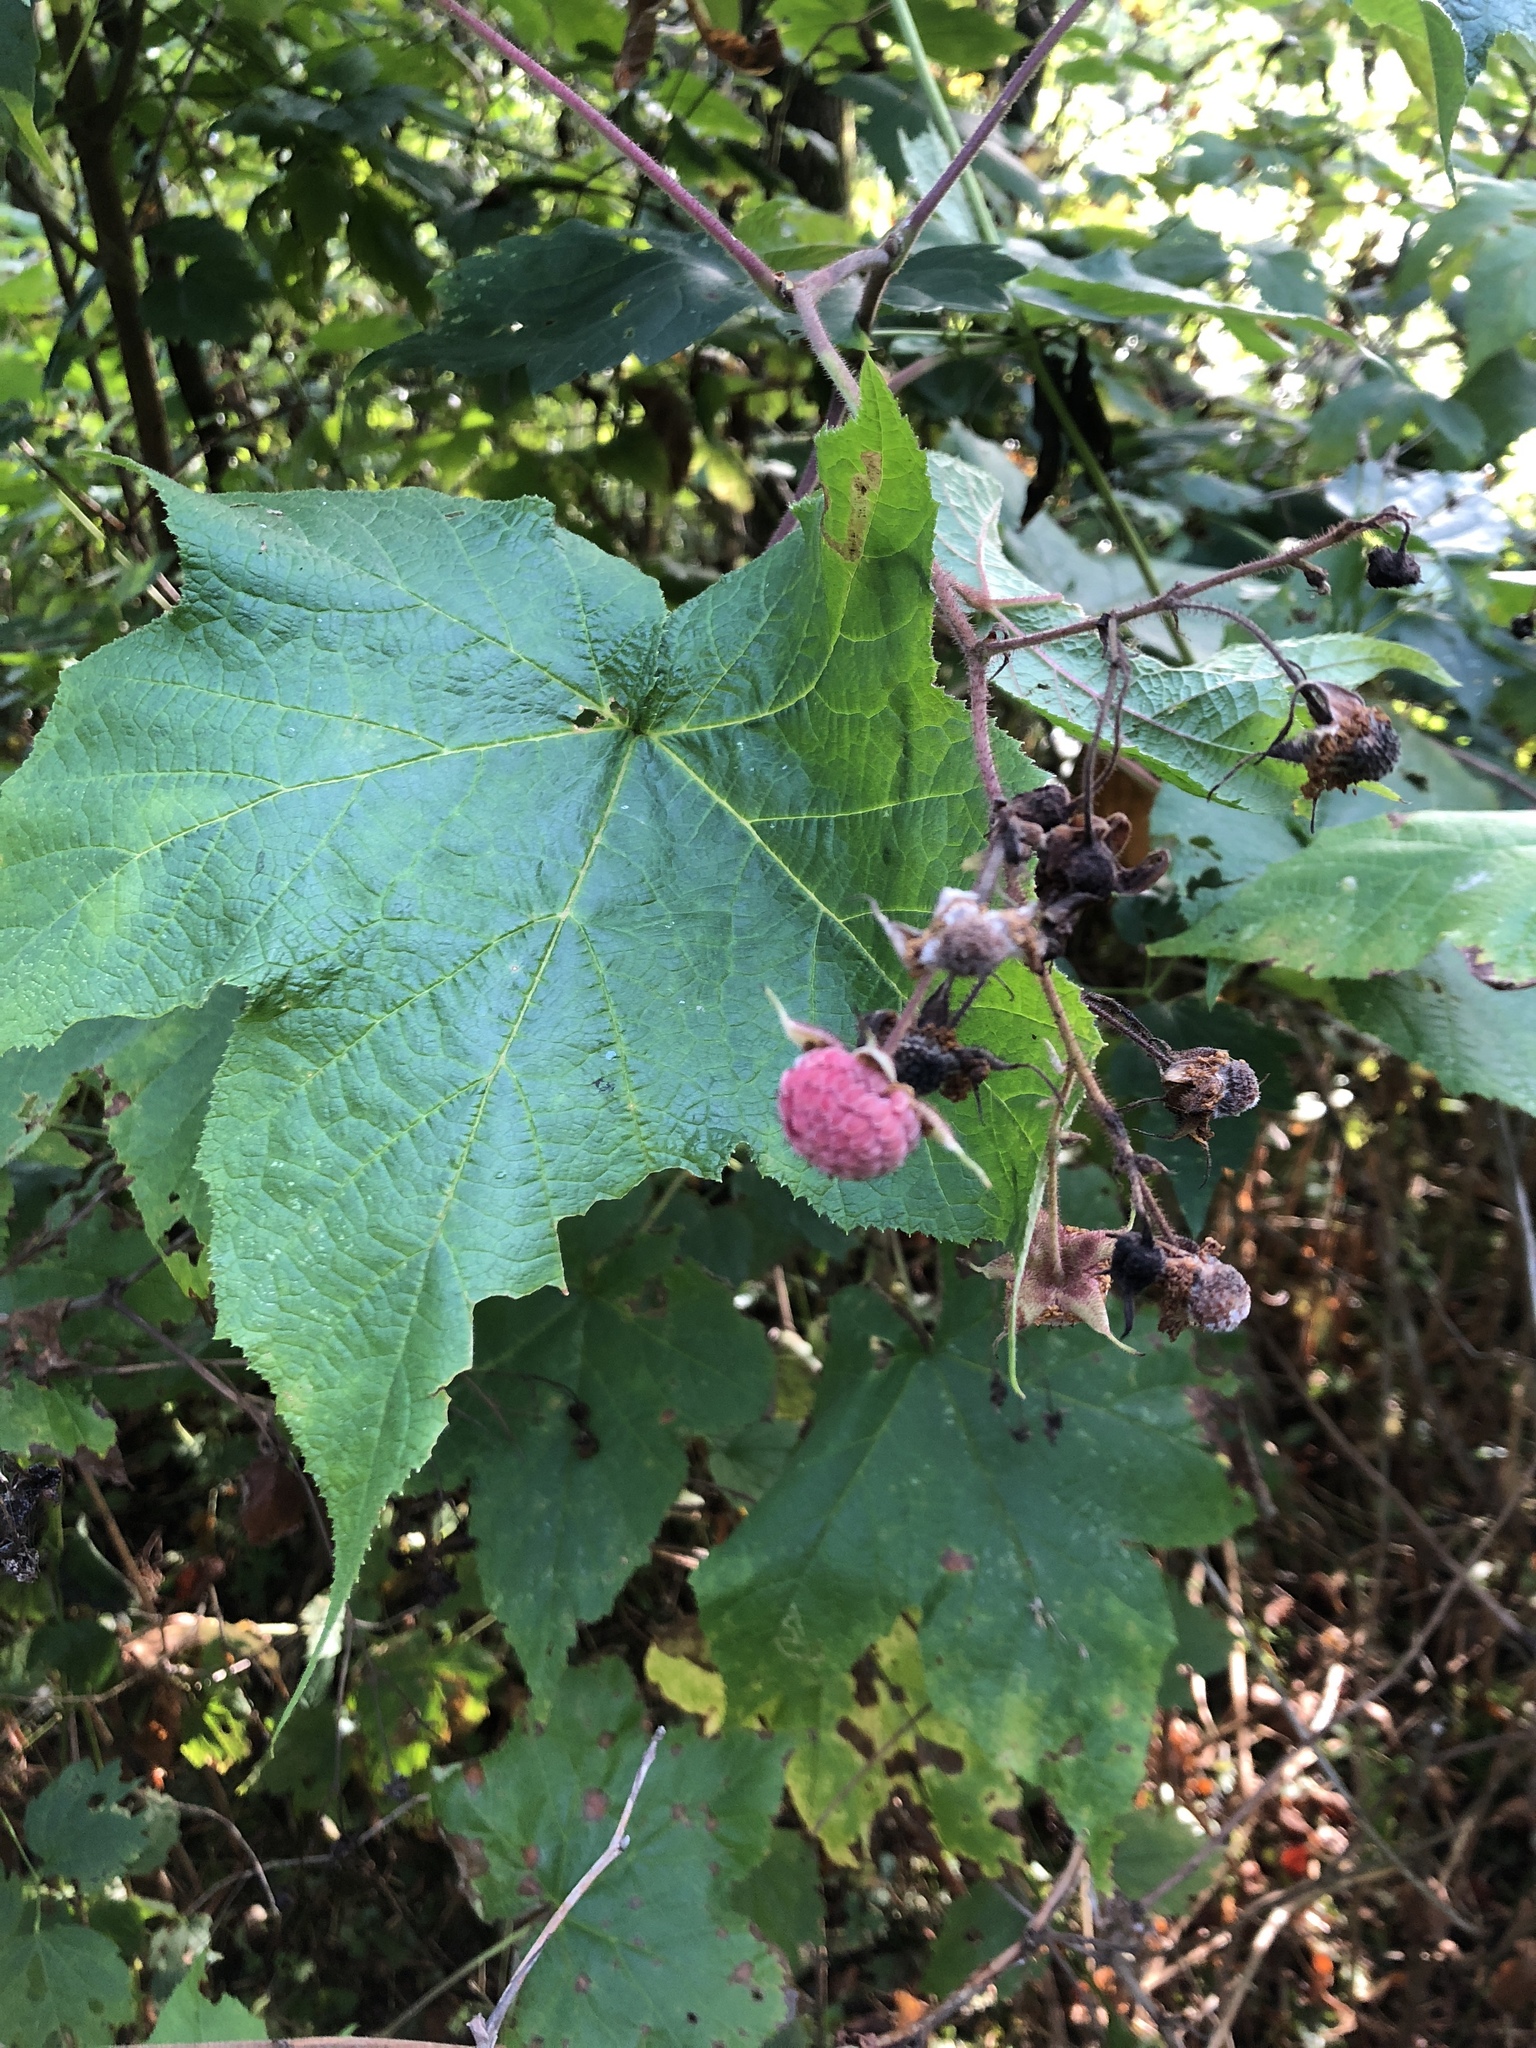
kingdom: Plantae
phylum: Tracheophyta
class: Magnoliopsida
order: Rosales
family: Rosaceae
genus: Rubus
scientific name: Rubus odoratus
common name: Purple-flowered raspberry
